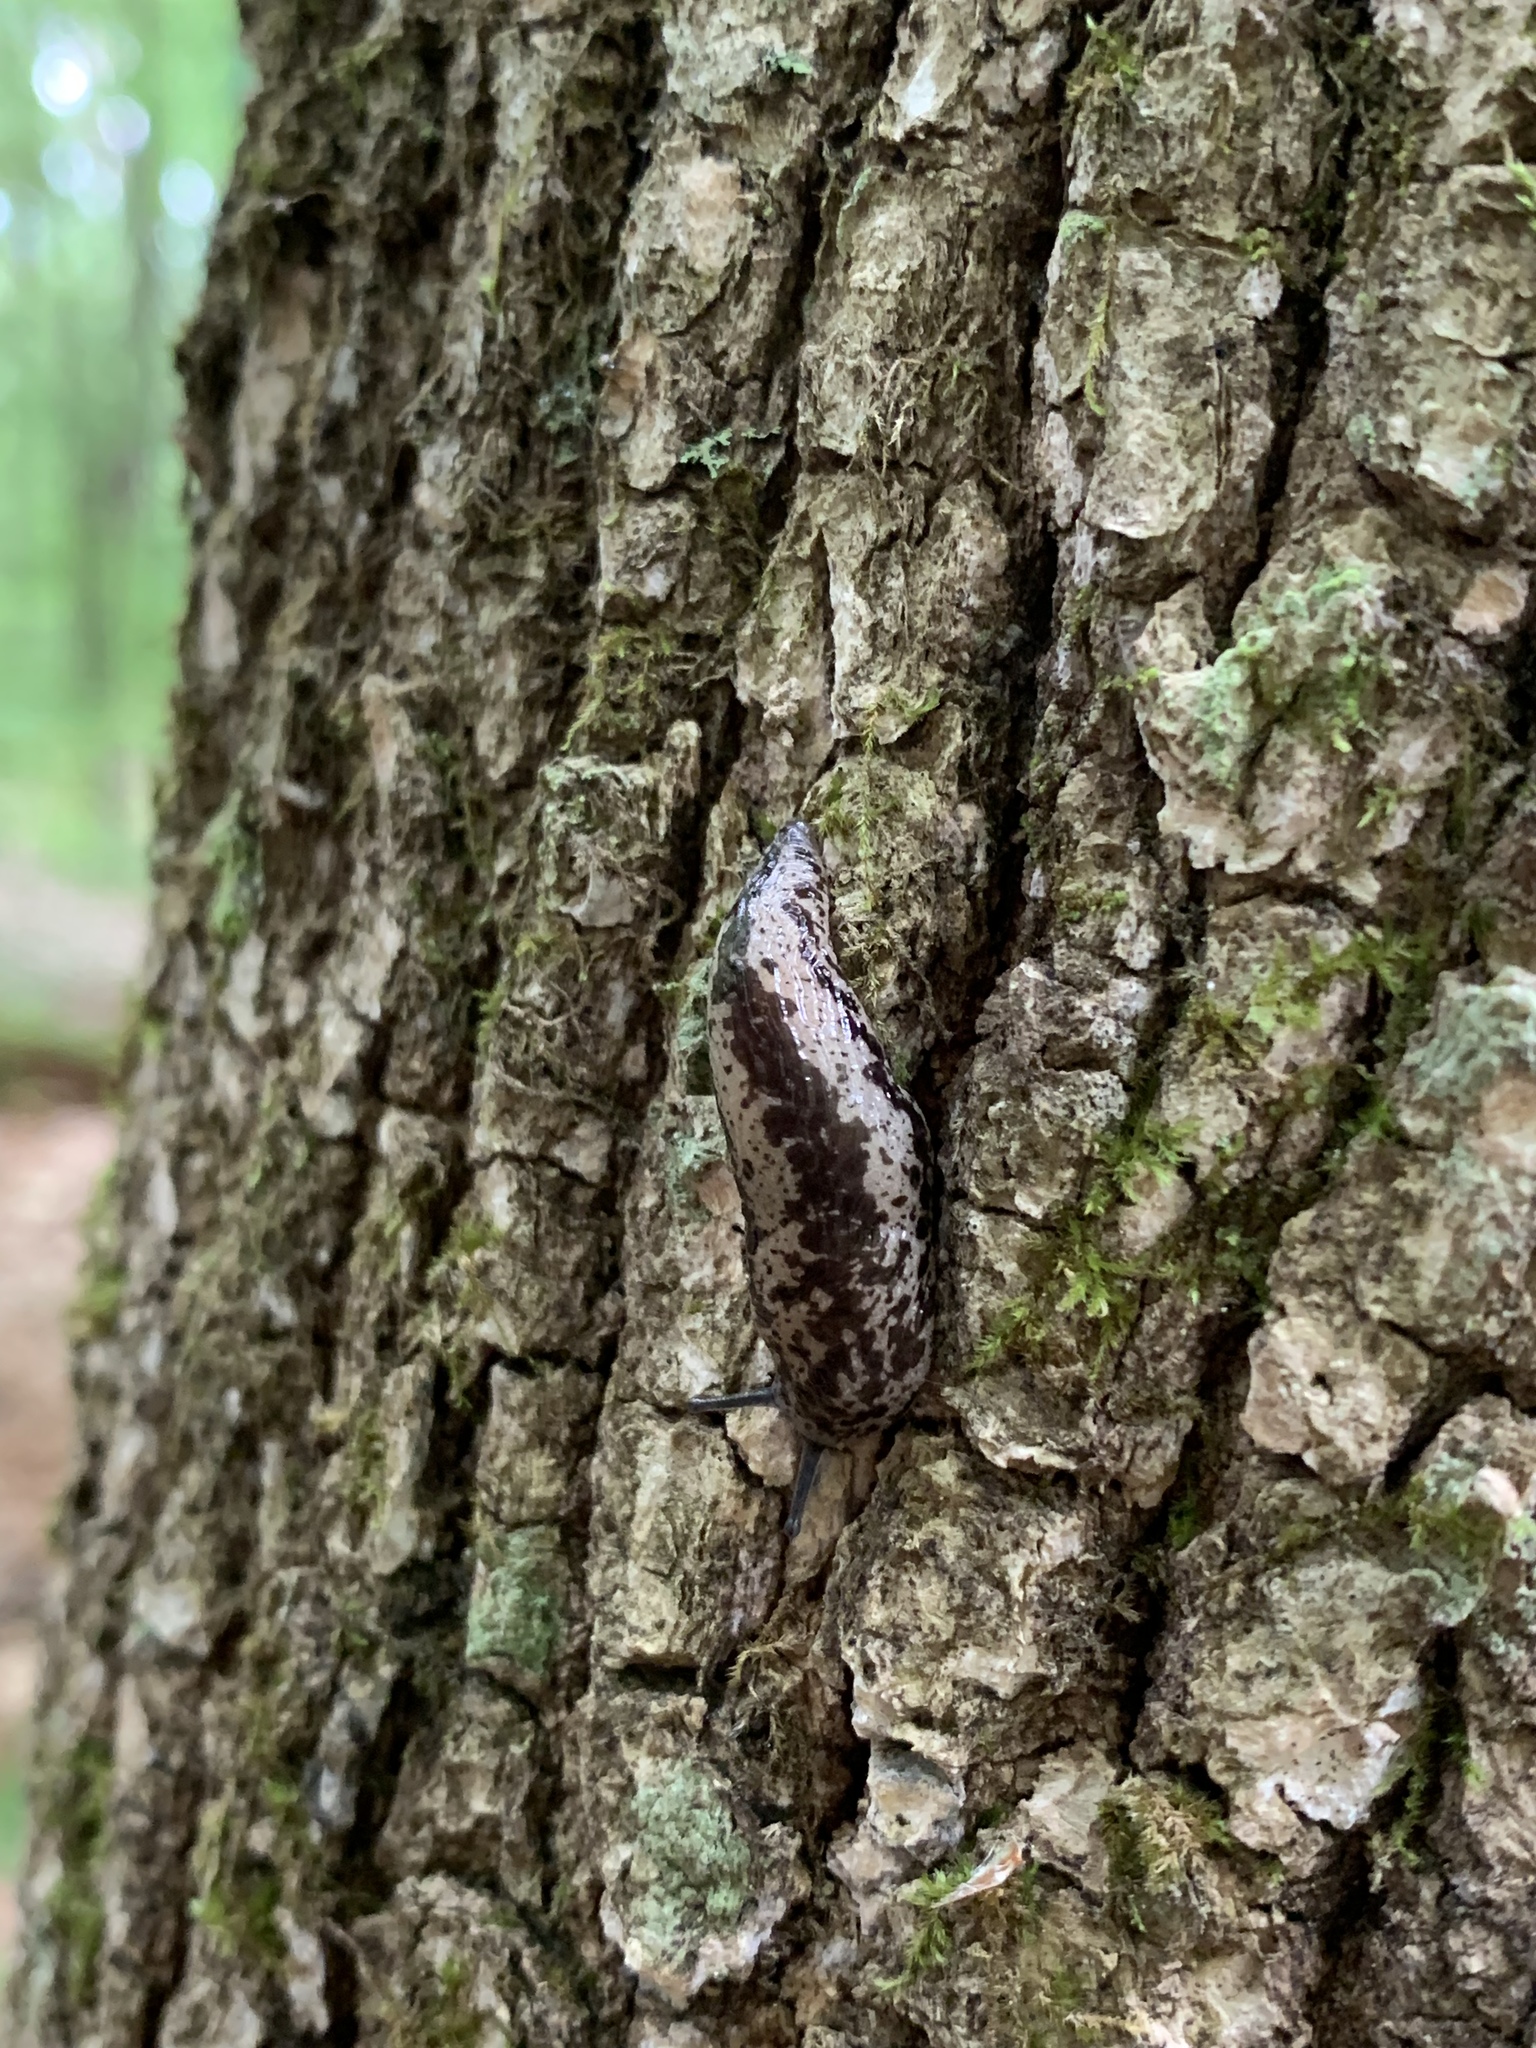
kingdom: Animalia
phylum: Mollusca
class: Gastropoda
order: Stylommatophora
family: Philomycidae
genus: Philomycus
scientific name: Philomycus flexuolaris
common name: Winding mantleslug
